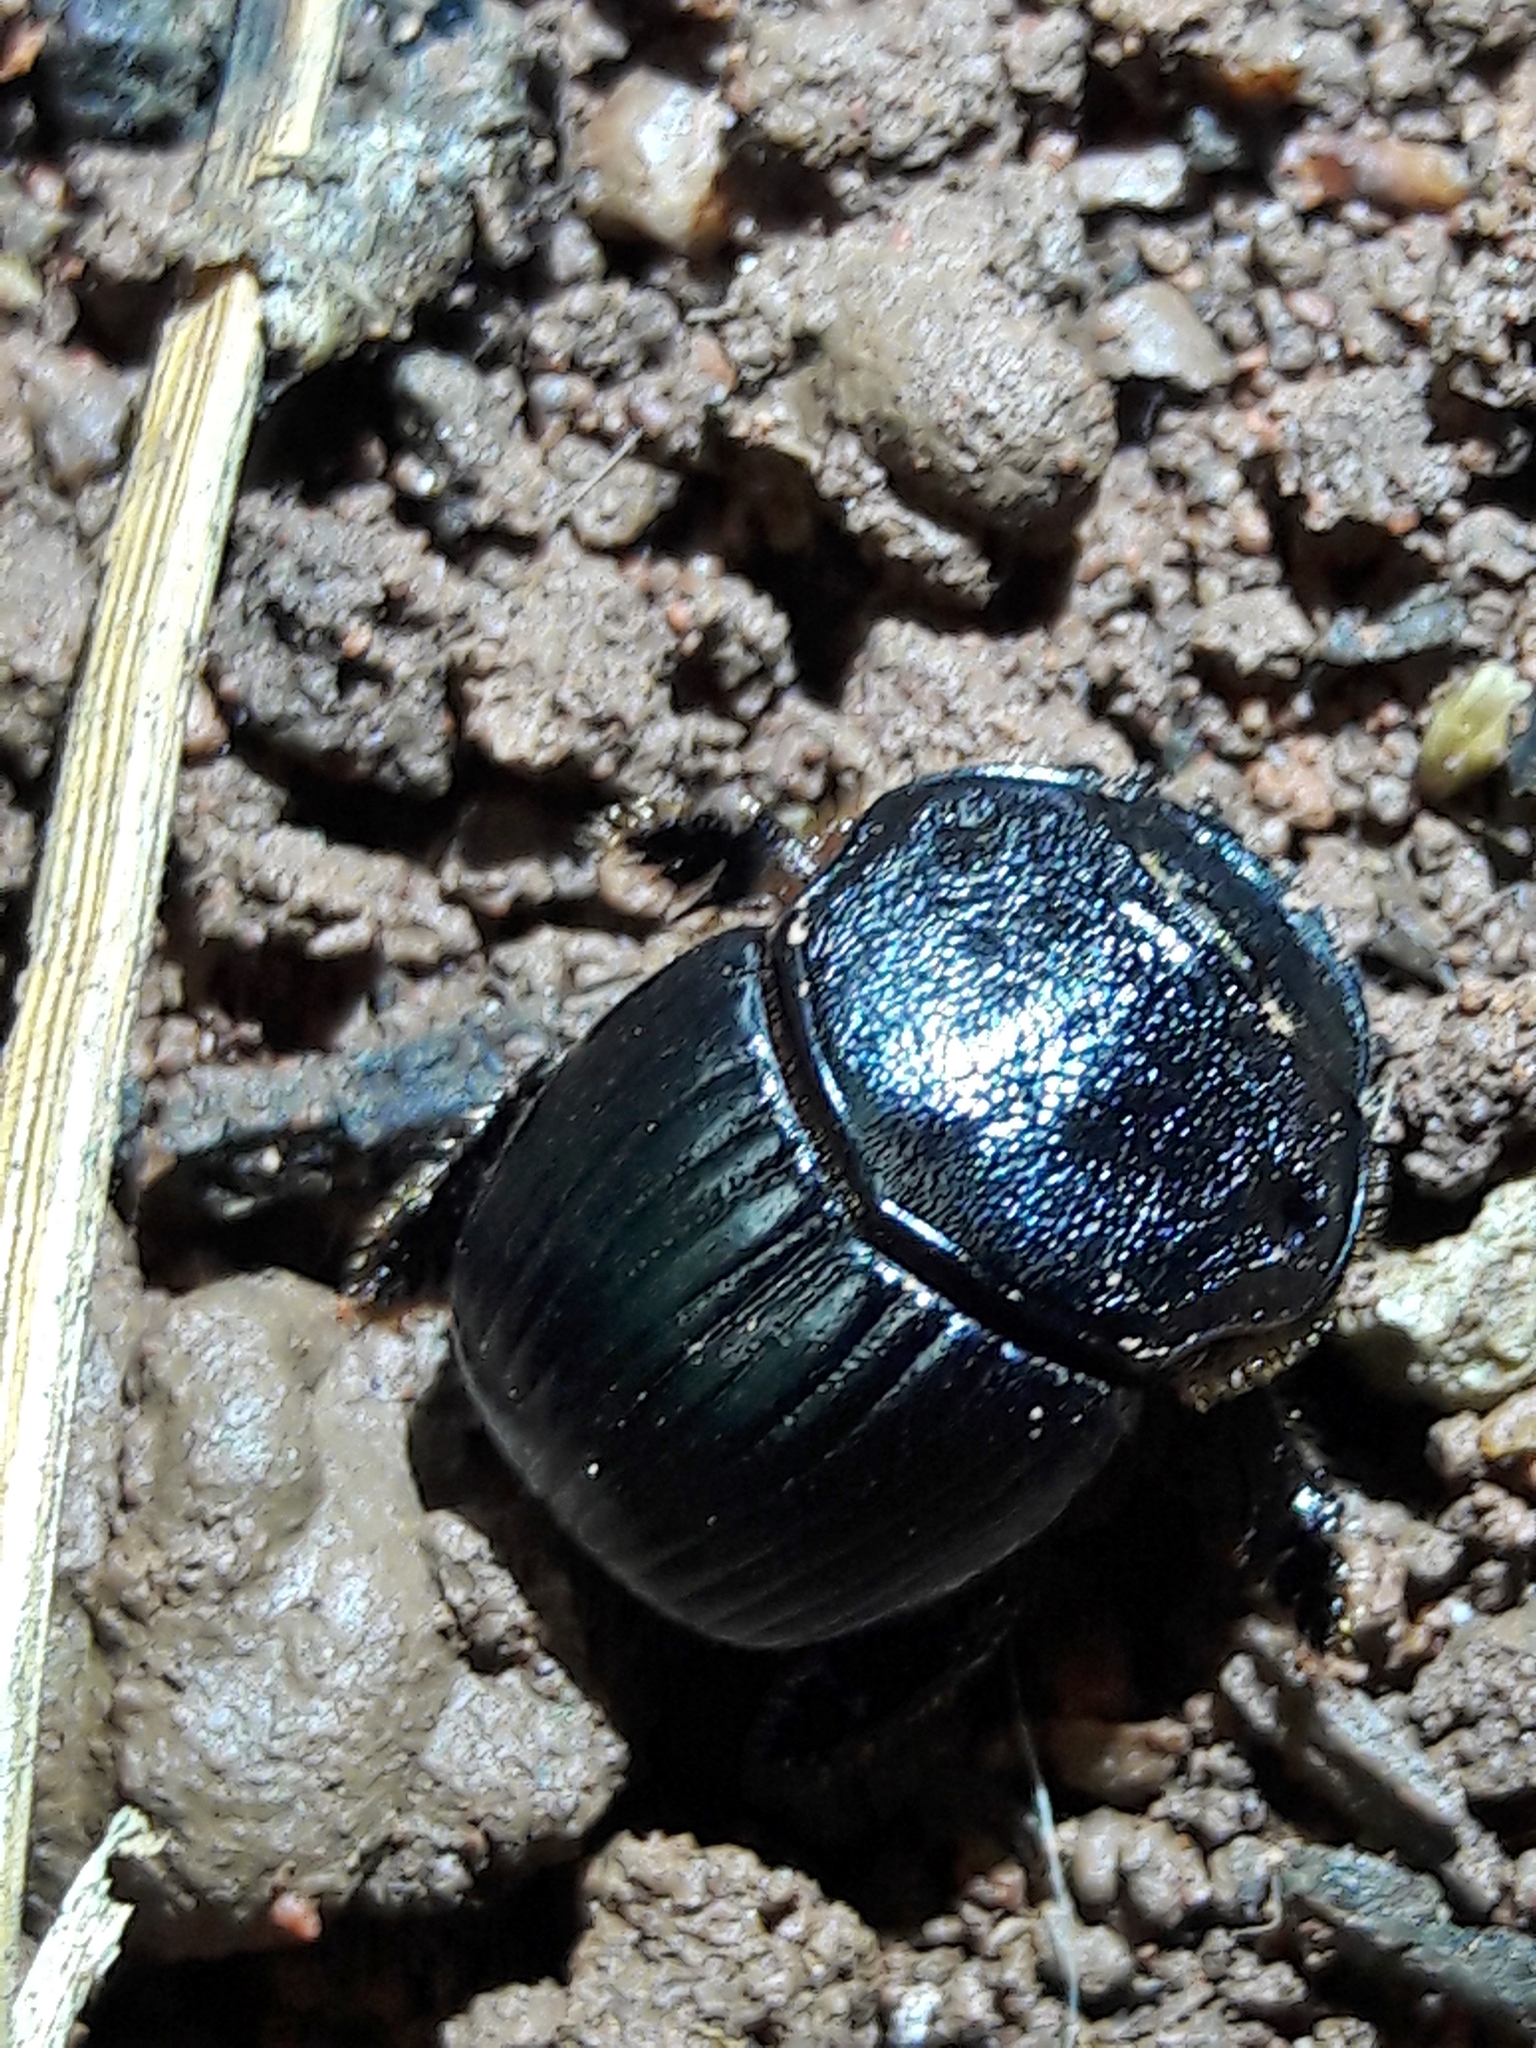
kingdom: Animalia
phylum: Arthropoda
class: Insecta
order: Coleoptera
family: Scarabaeidae
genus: Dendropaemon
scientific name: Dendropaemon convexus
